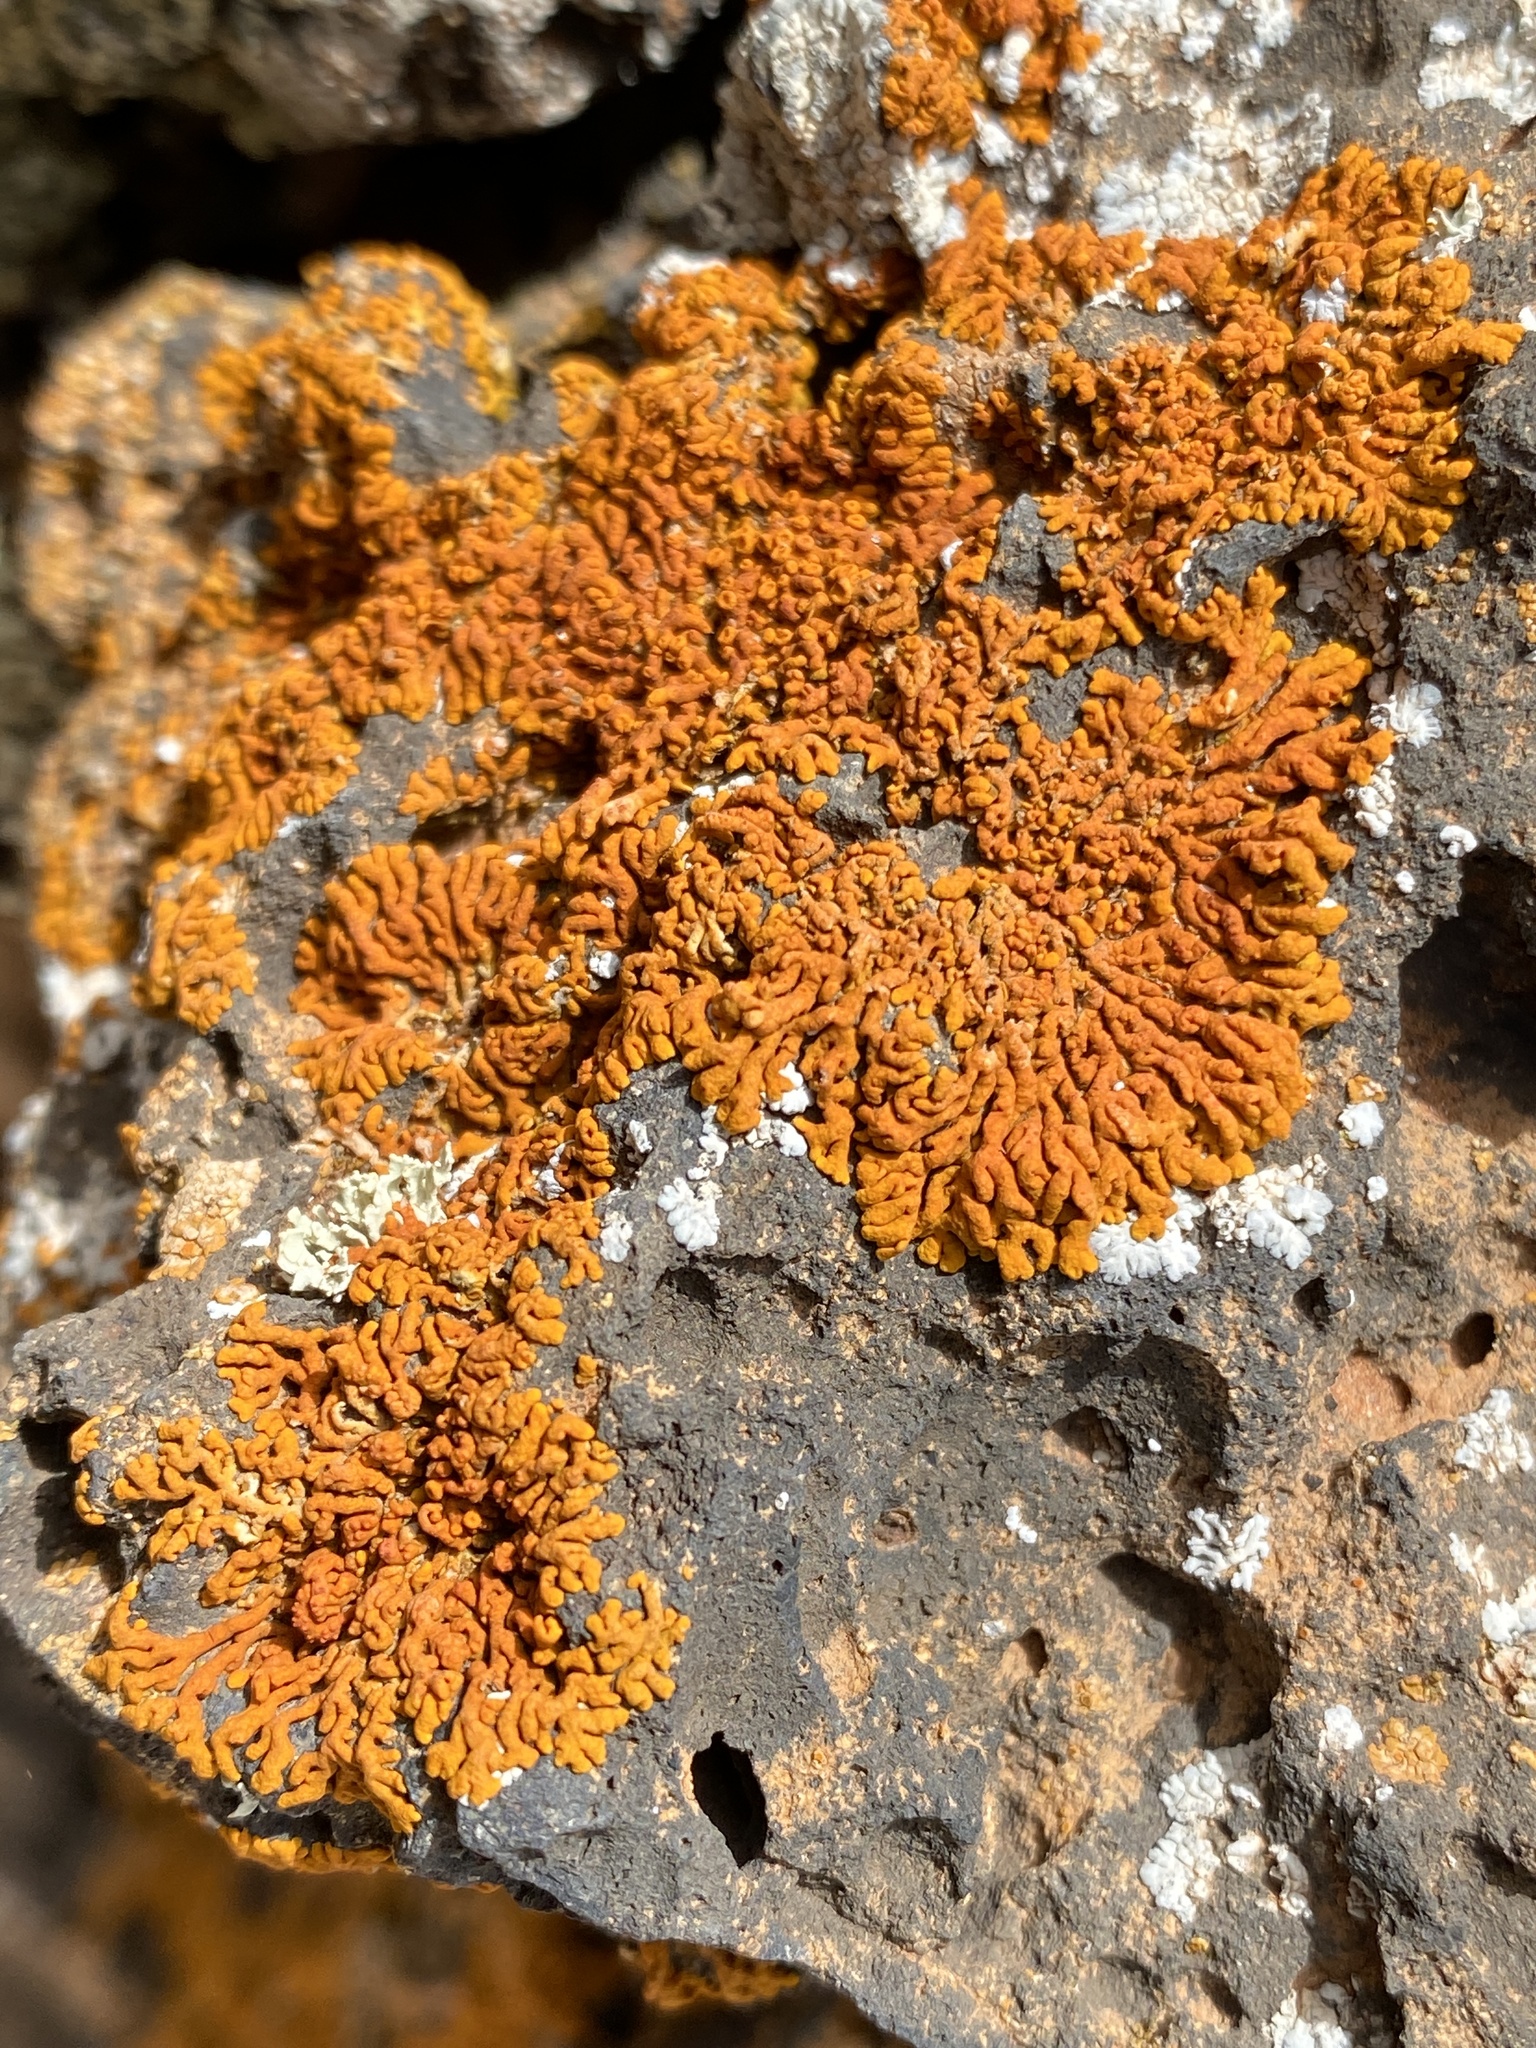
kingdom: Fungi
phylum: Ascomycota
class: Lecanoromycetes
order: Teloschistales
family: Teloschistaceae
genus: Xanthoria
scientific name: Xanthoria elegans
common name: Elegant sunburst lichen
